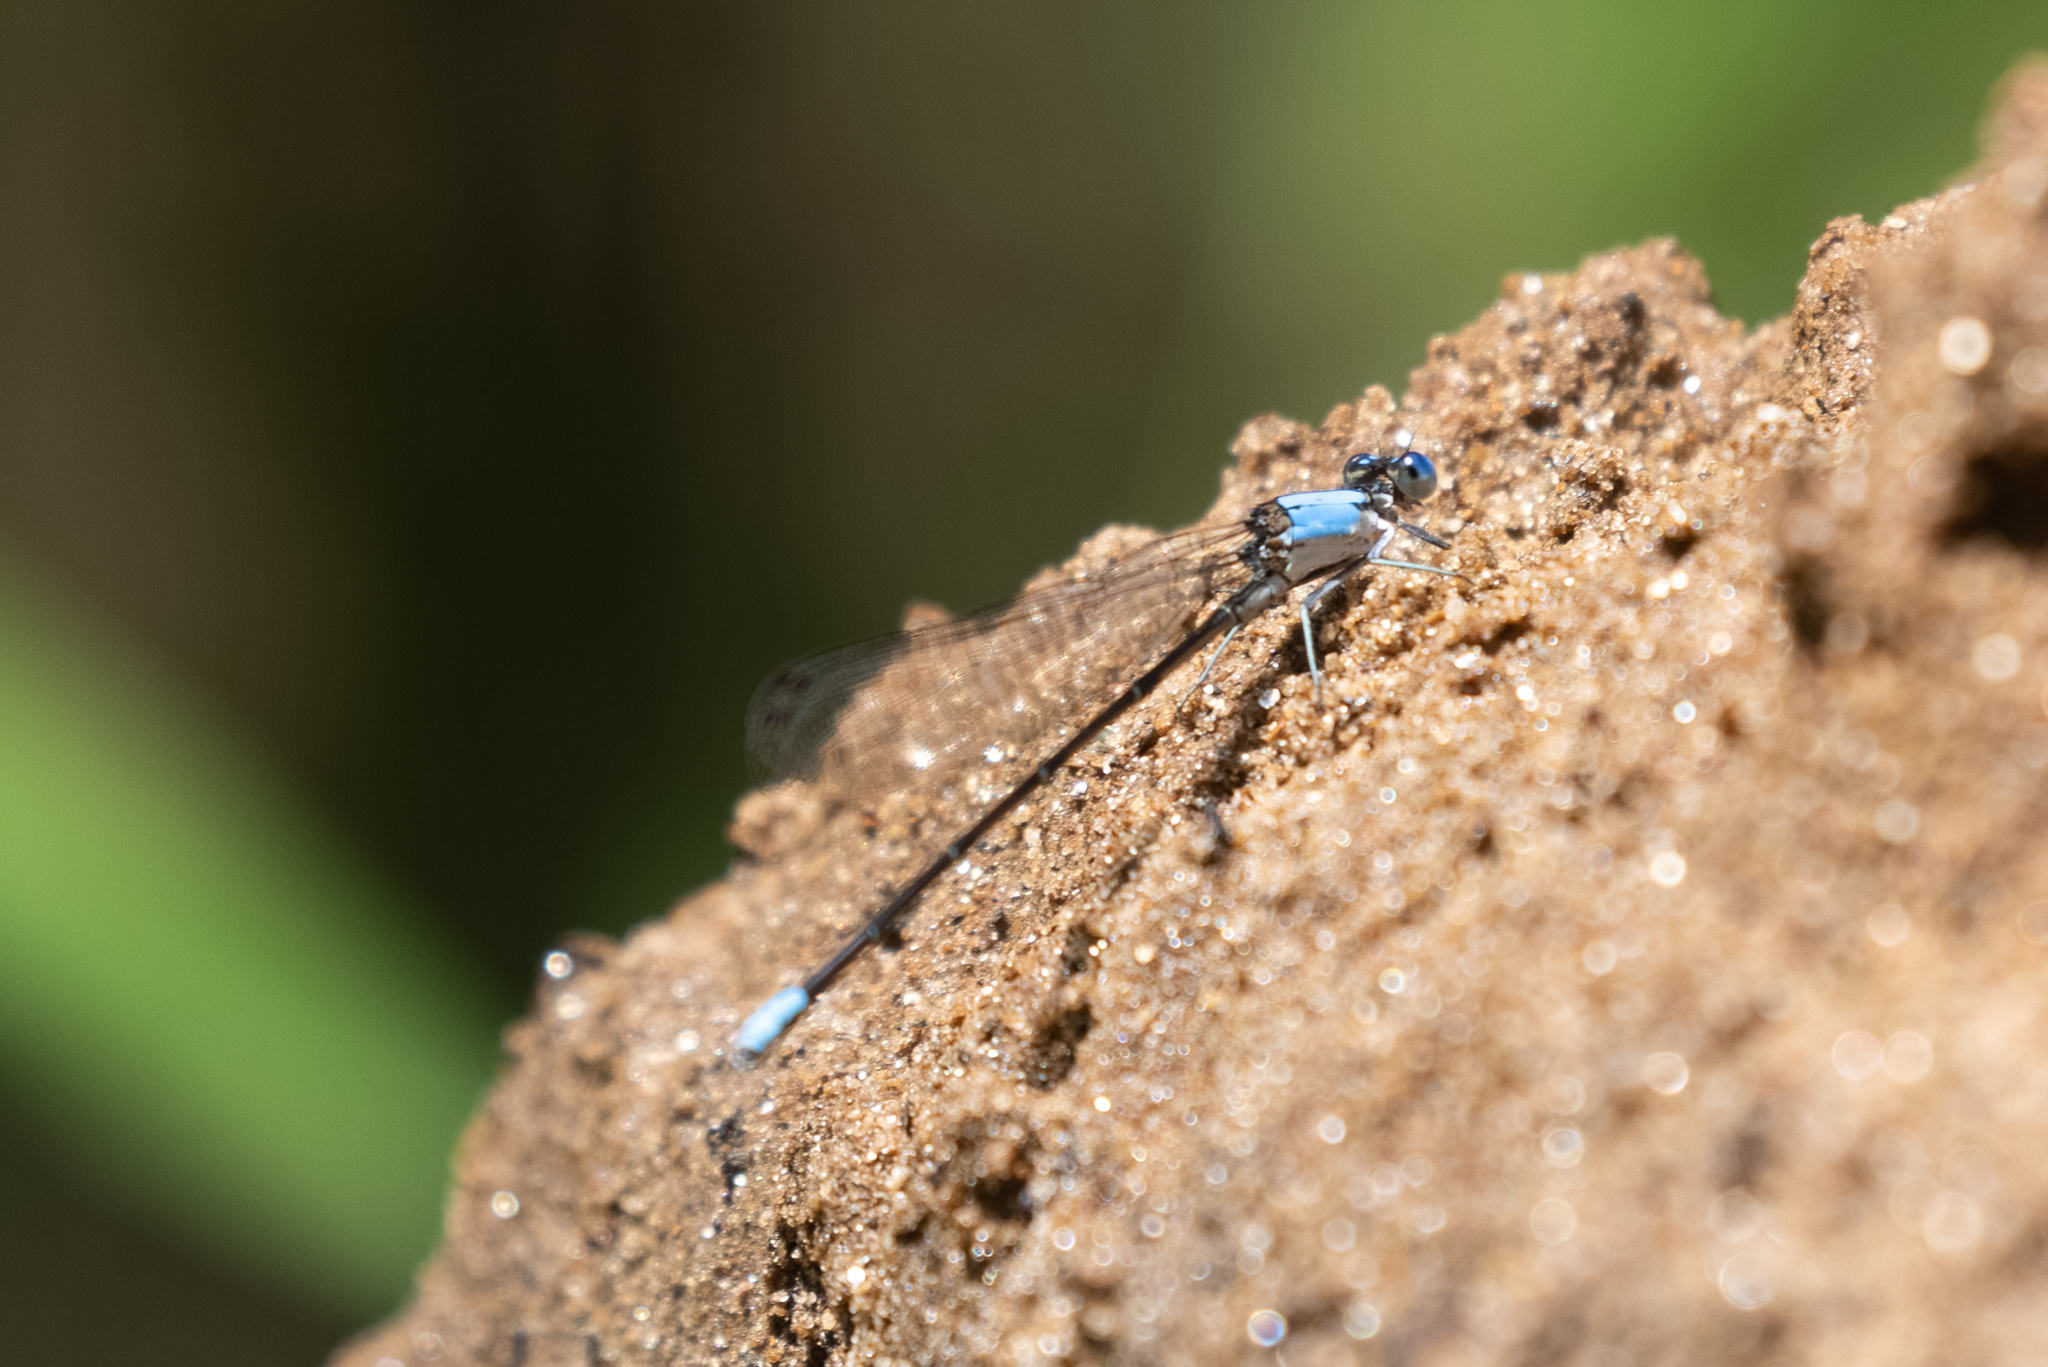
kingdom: Animalia
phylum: Arthropoda
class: Insecta
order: Odonata
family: Coenagrionidae
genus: Argia
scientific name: Argia apicalis
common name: Blue-fronted dancer
